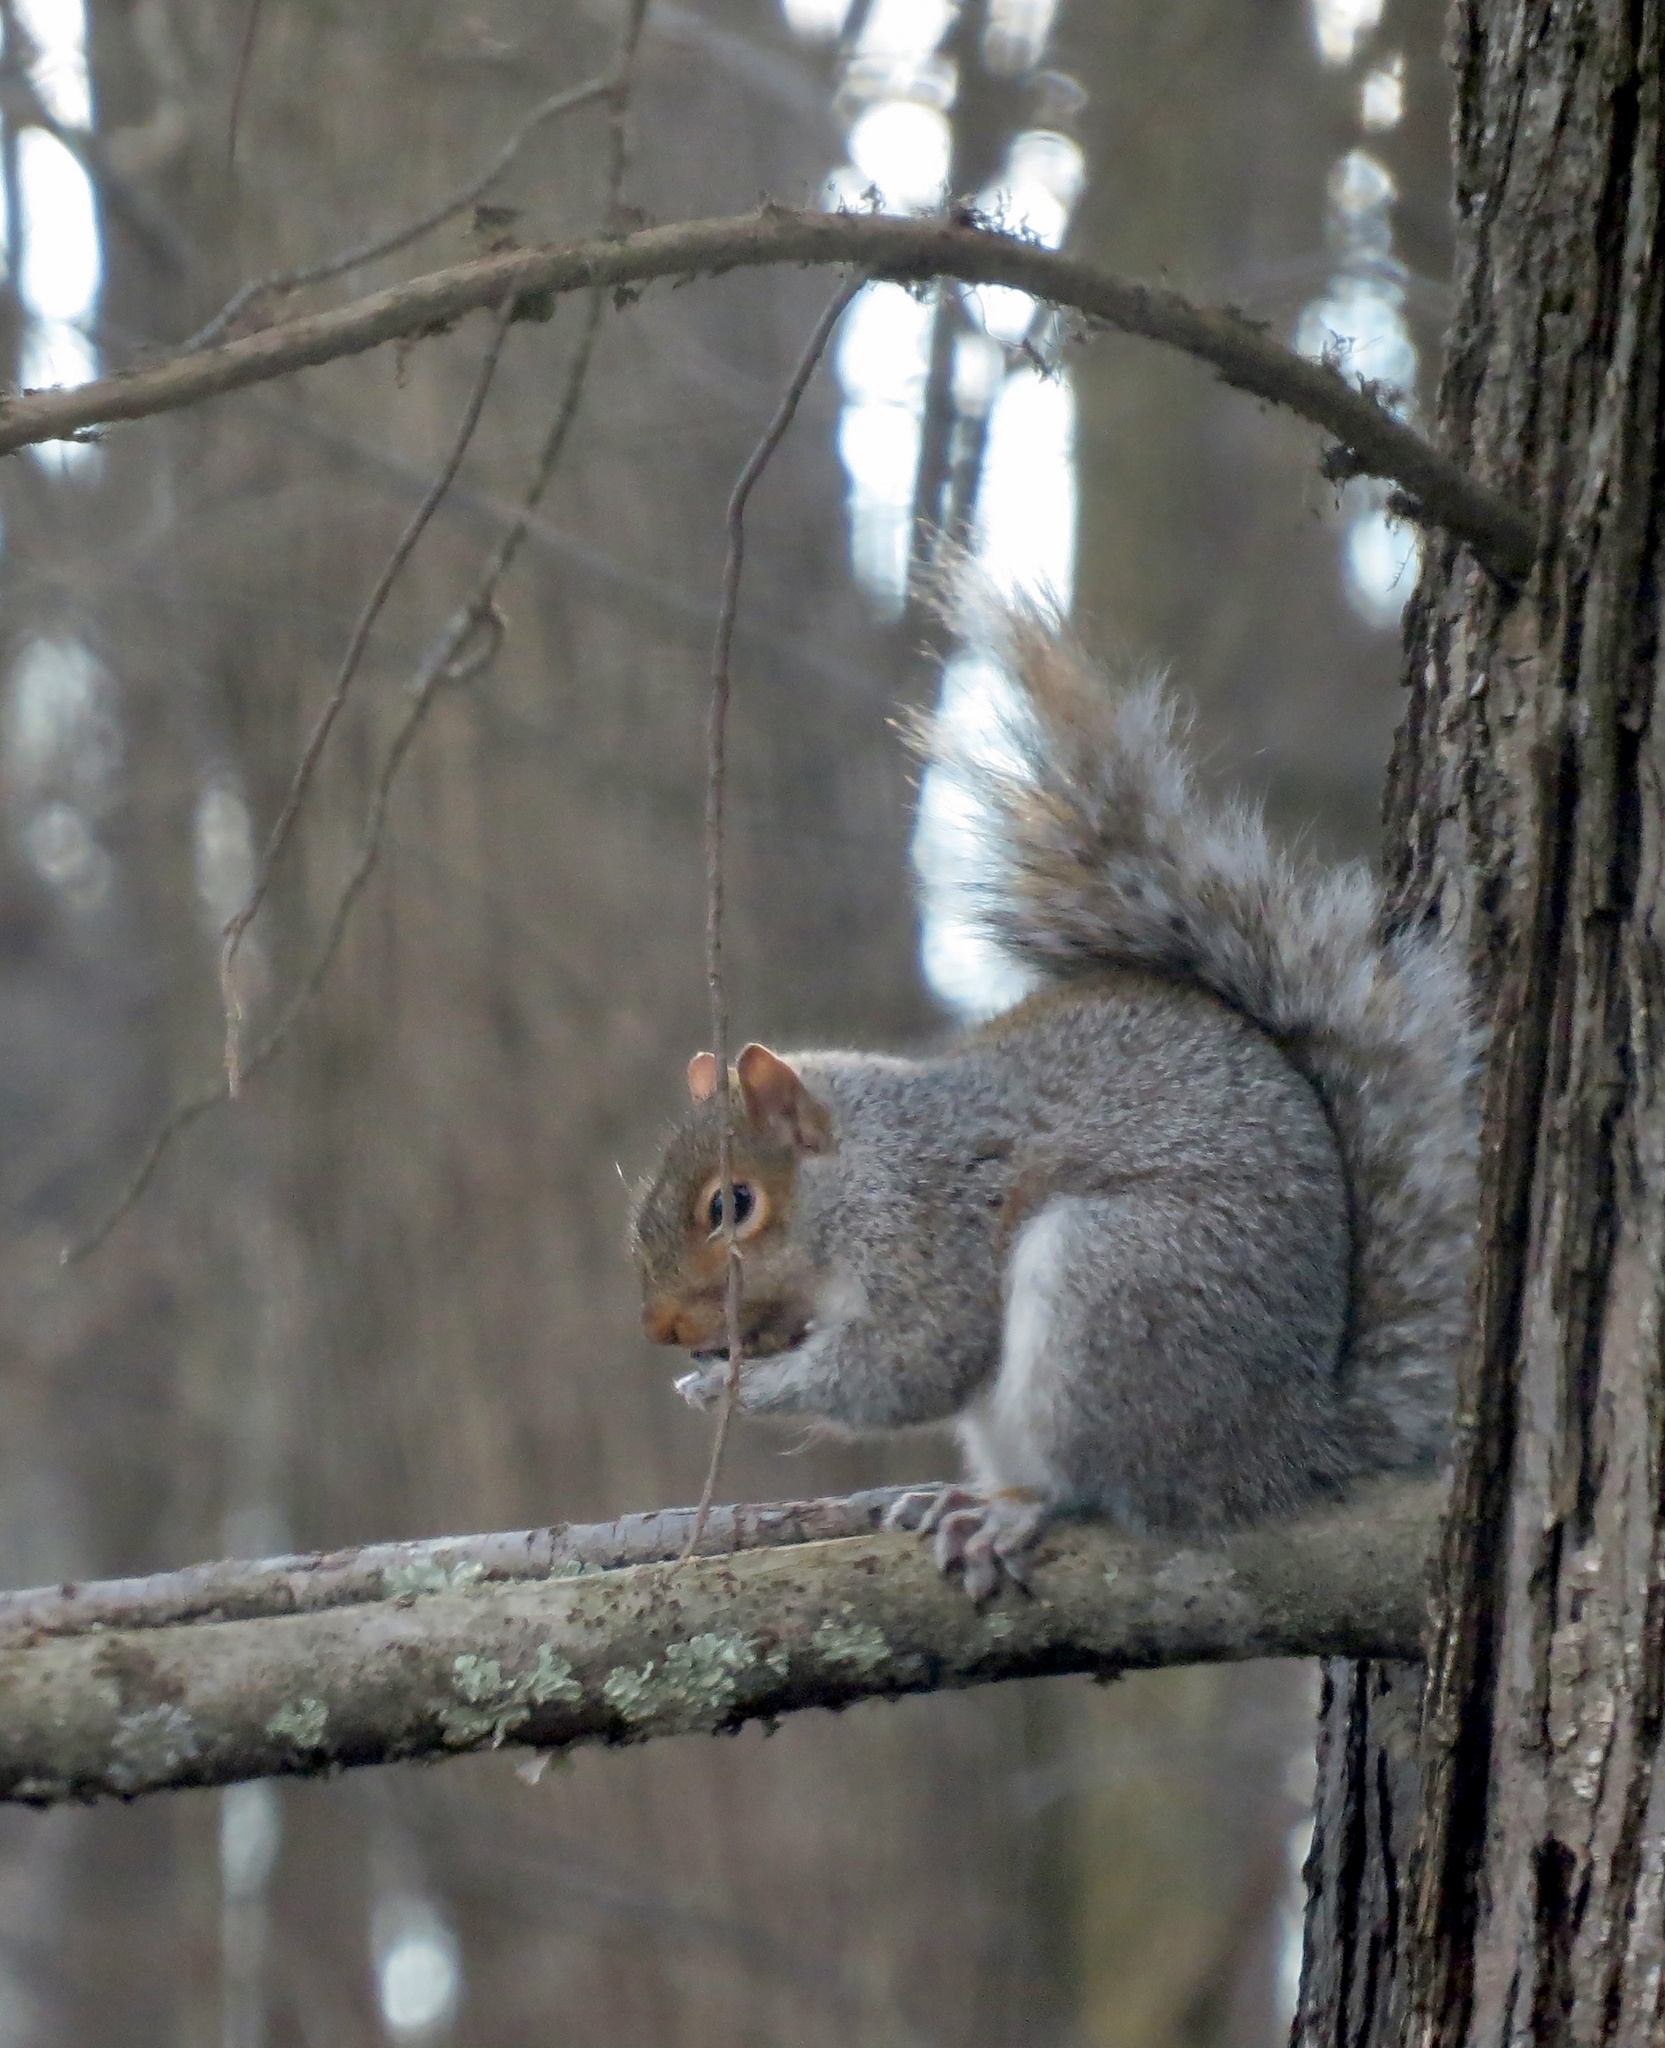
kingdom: Animalia
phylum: Chordata
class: Mammalia
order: Rodentia
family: Sciuridae
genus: Sciurus
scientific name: Sciurus carolinensis
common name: Eastern gray squirrel
